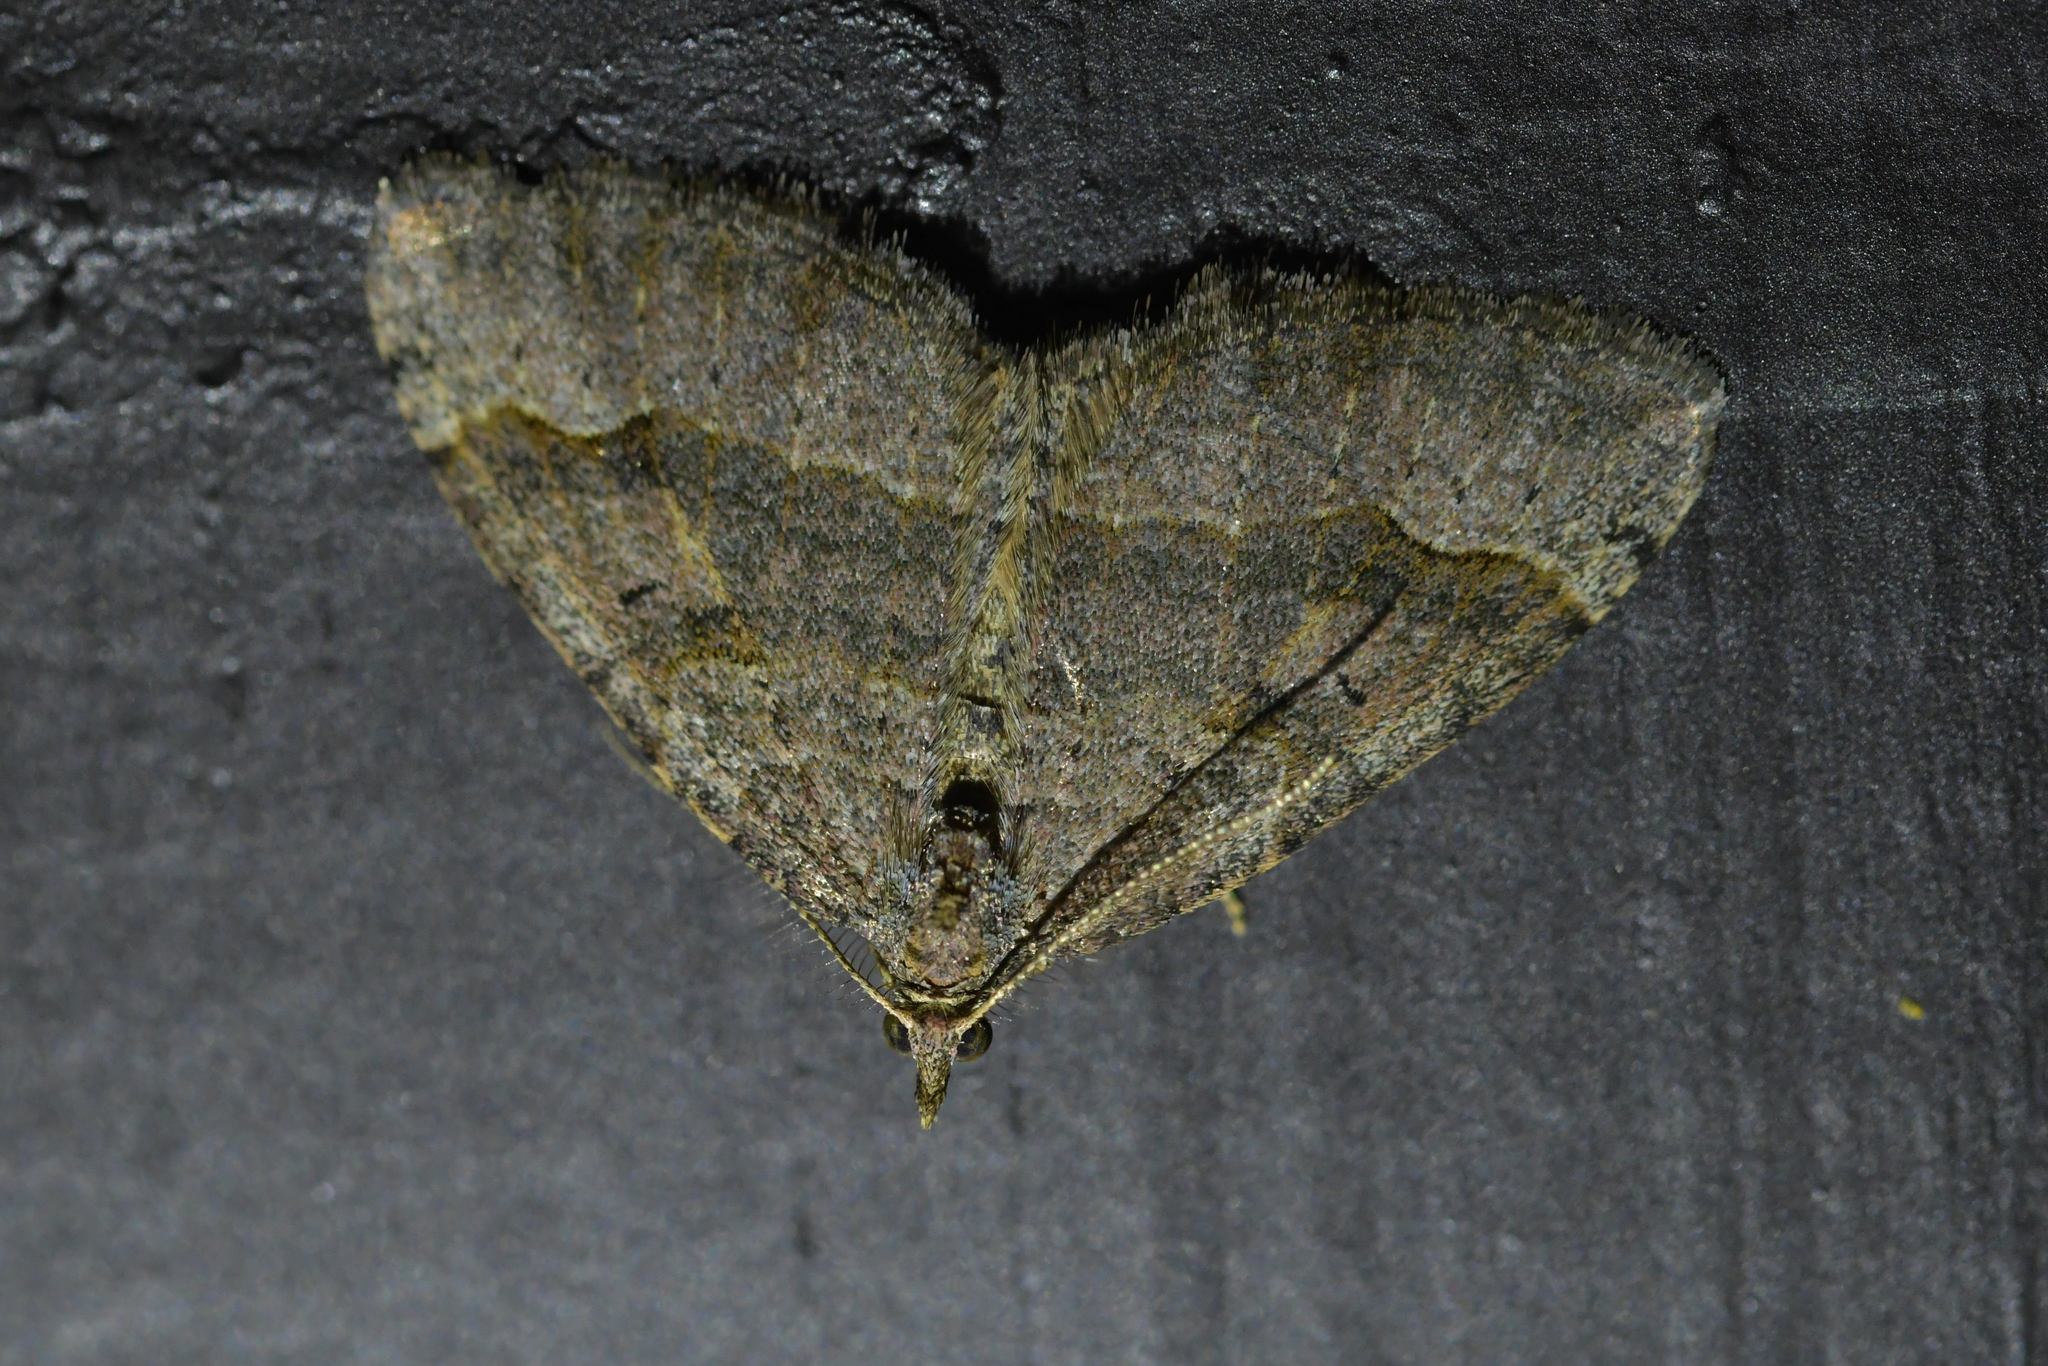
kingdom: Animalia
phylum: Arthropoda
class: Insecta
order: Lepidoptera
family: Geometridae
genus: Epyaxa
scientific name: Epyaxa rosearia
